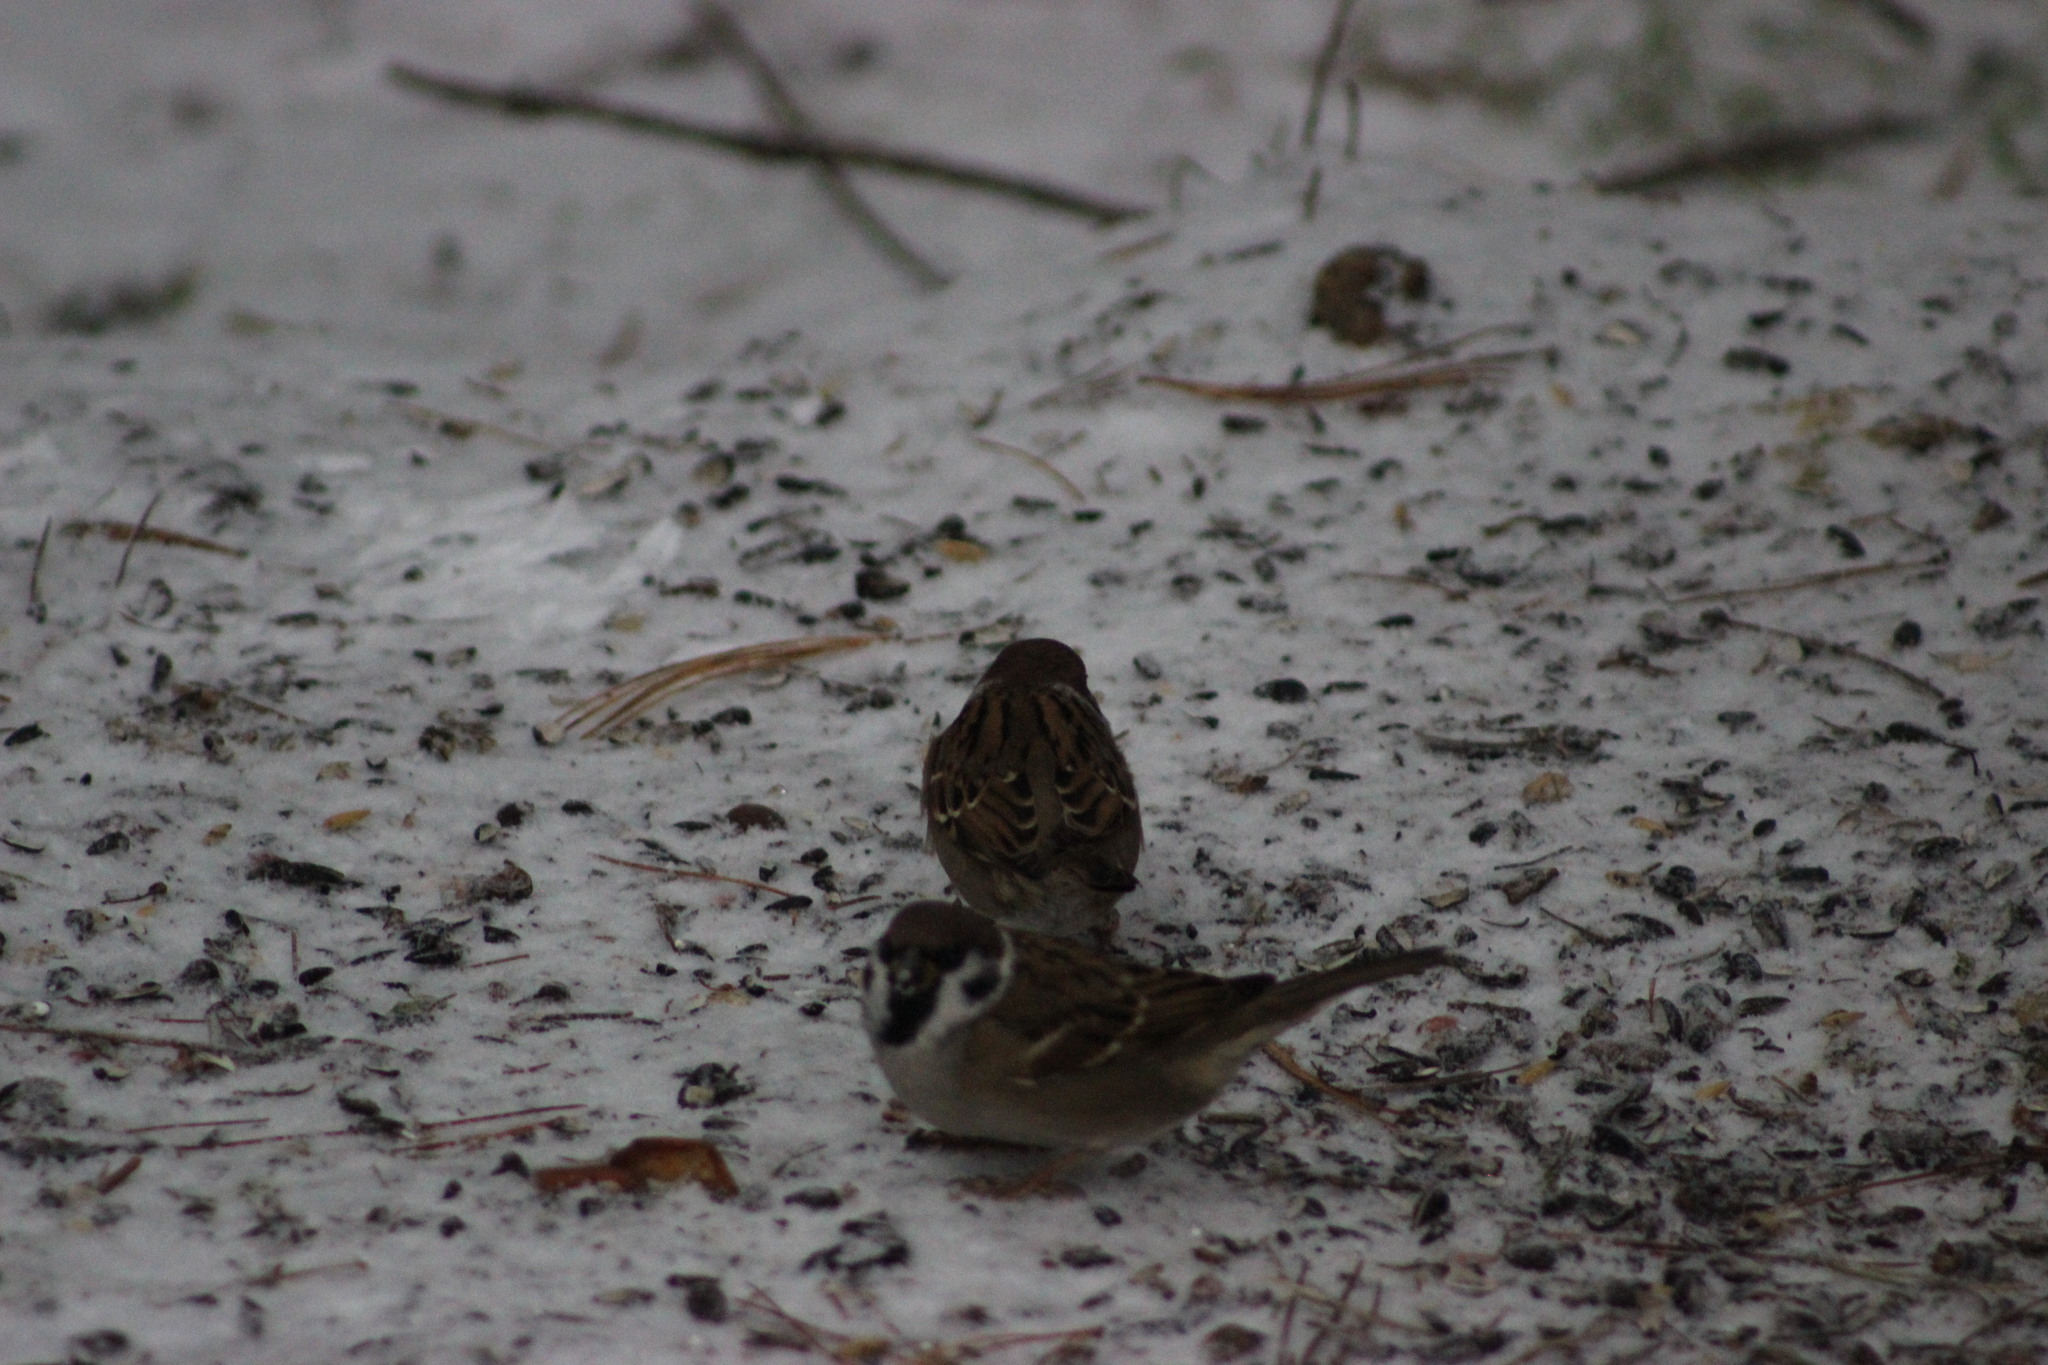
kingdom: Animalia
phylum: Chordata
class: Aves
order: Passeriformes
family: Passeridae
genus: Passer
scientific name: Passer montanus
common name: Eurasian tree sparrow
